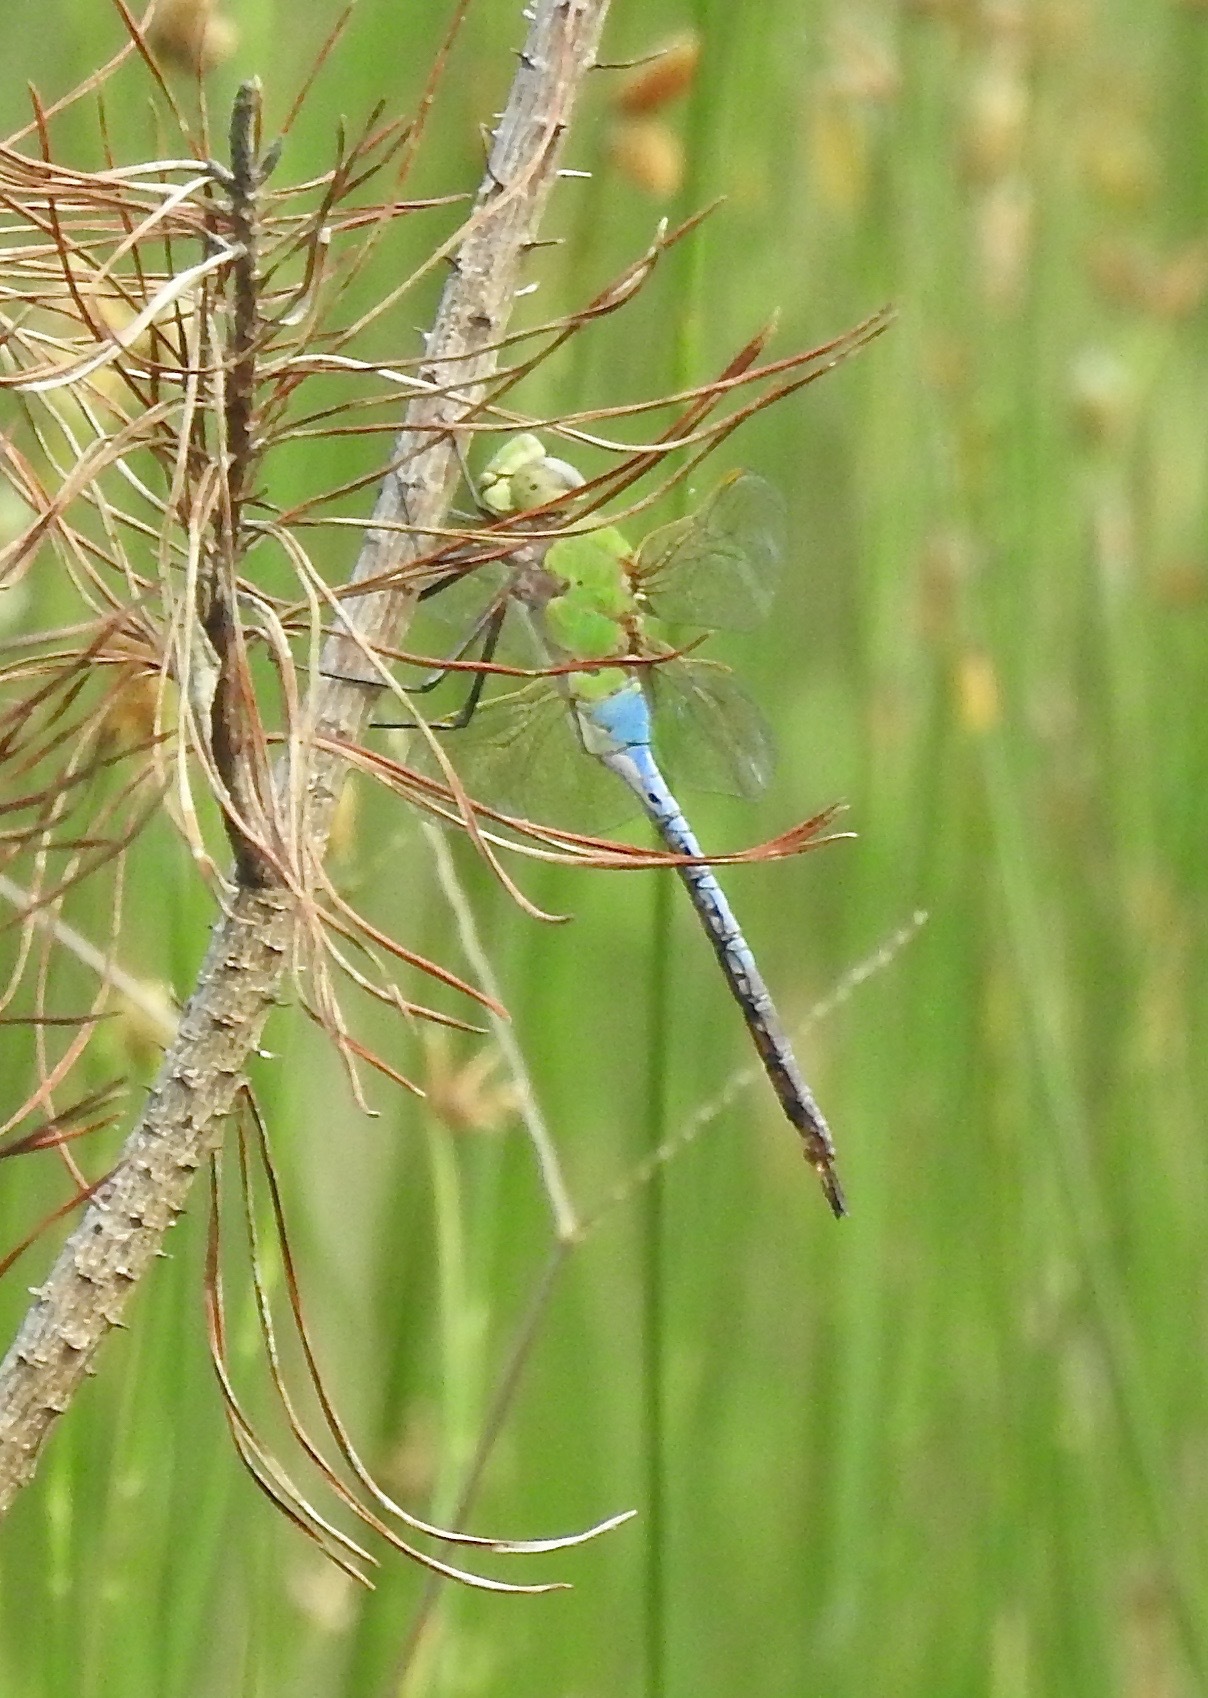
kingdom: Animalia
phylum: Arthropoda
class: Insecta
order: Odonata
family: Aeshnidae
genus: Anax
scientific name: Anax junius
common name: Common green darner
